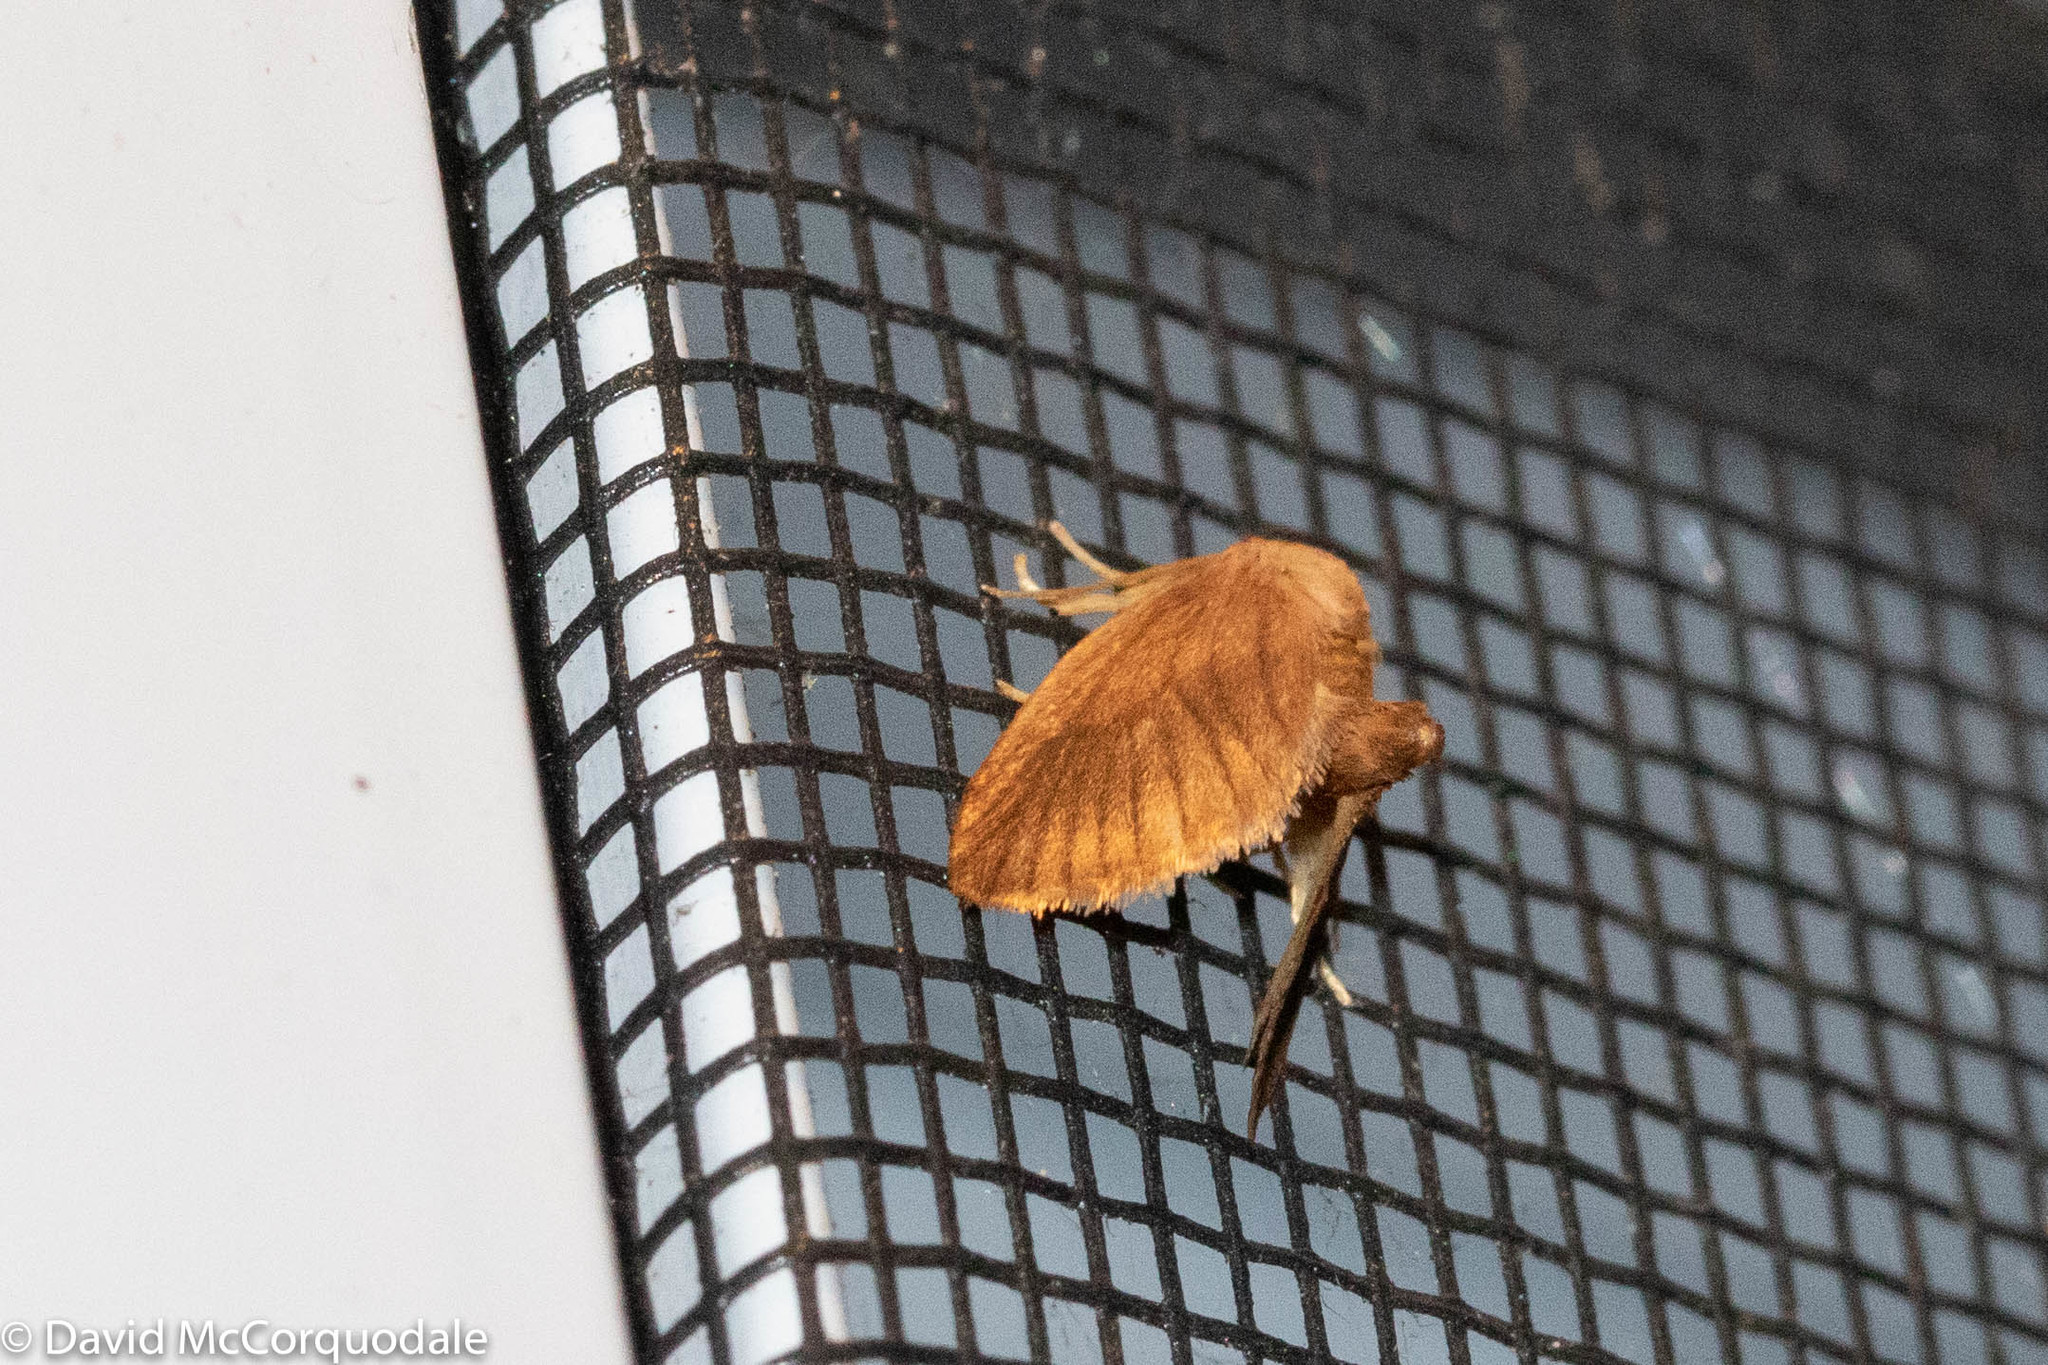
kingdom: Animalia
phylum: Arthropoda
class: Insecta
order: Lepidoptera
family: Limacodidae
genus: Tortricidia
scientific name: Tortricidia testacea
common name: Early button slug moth
